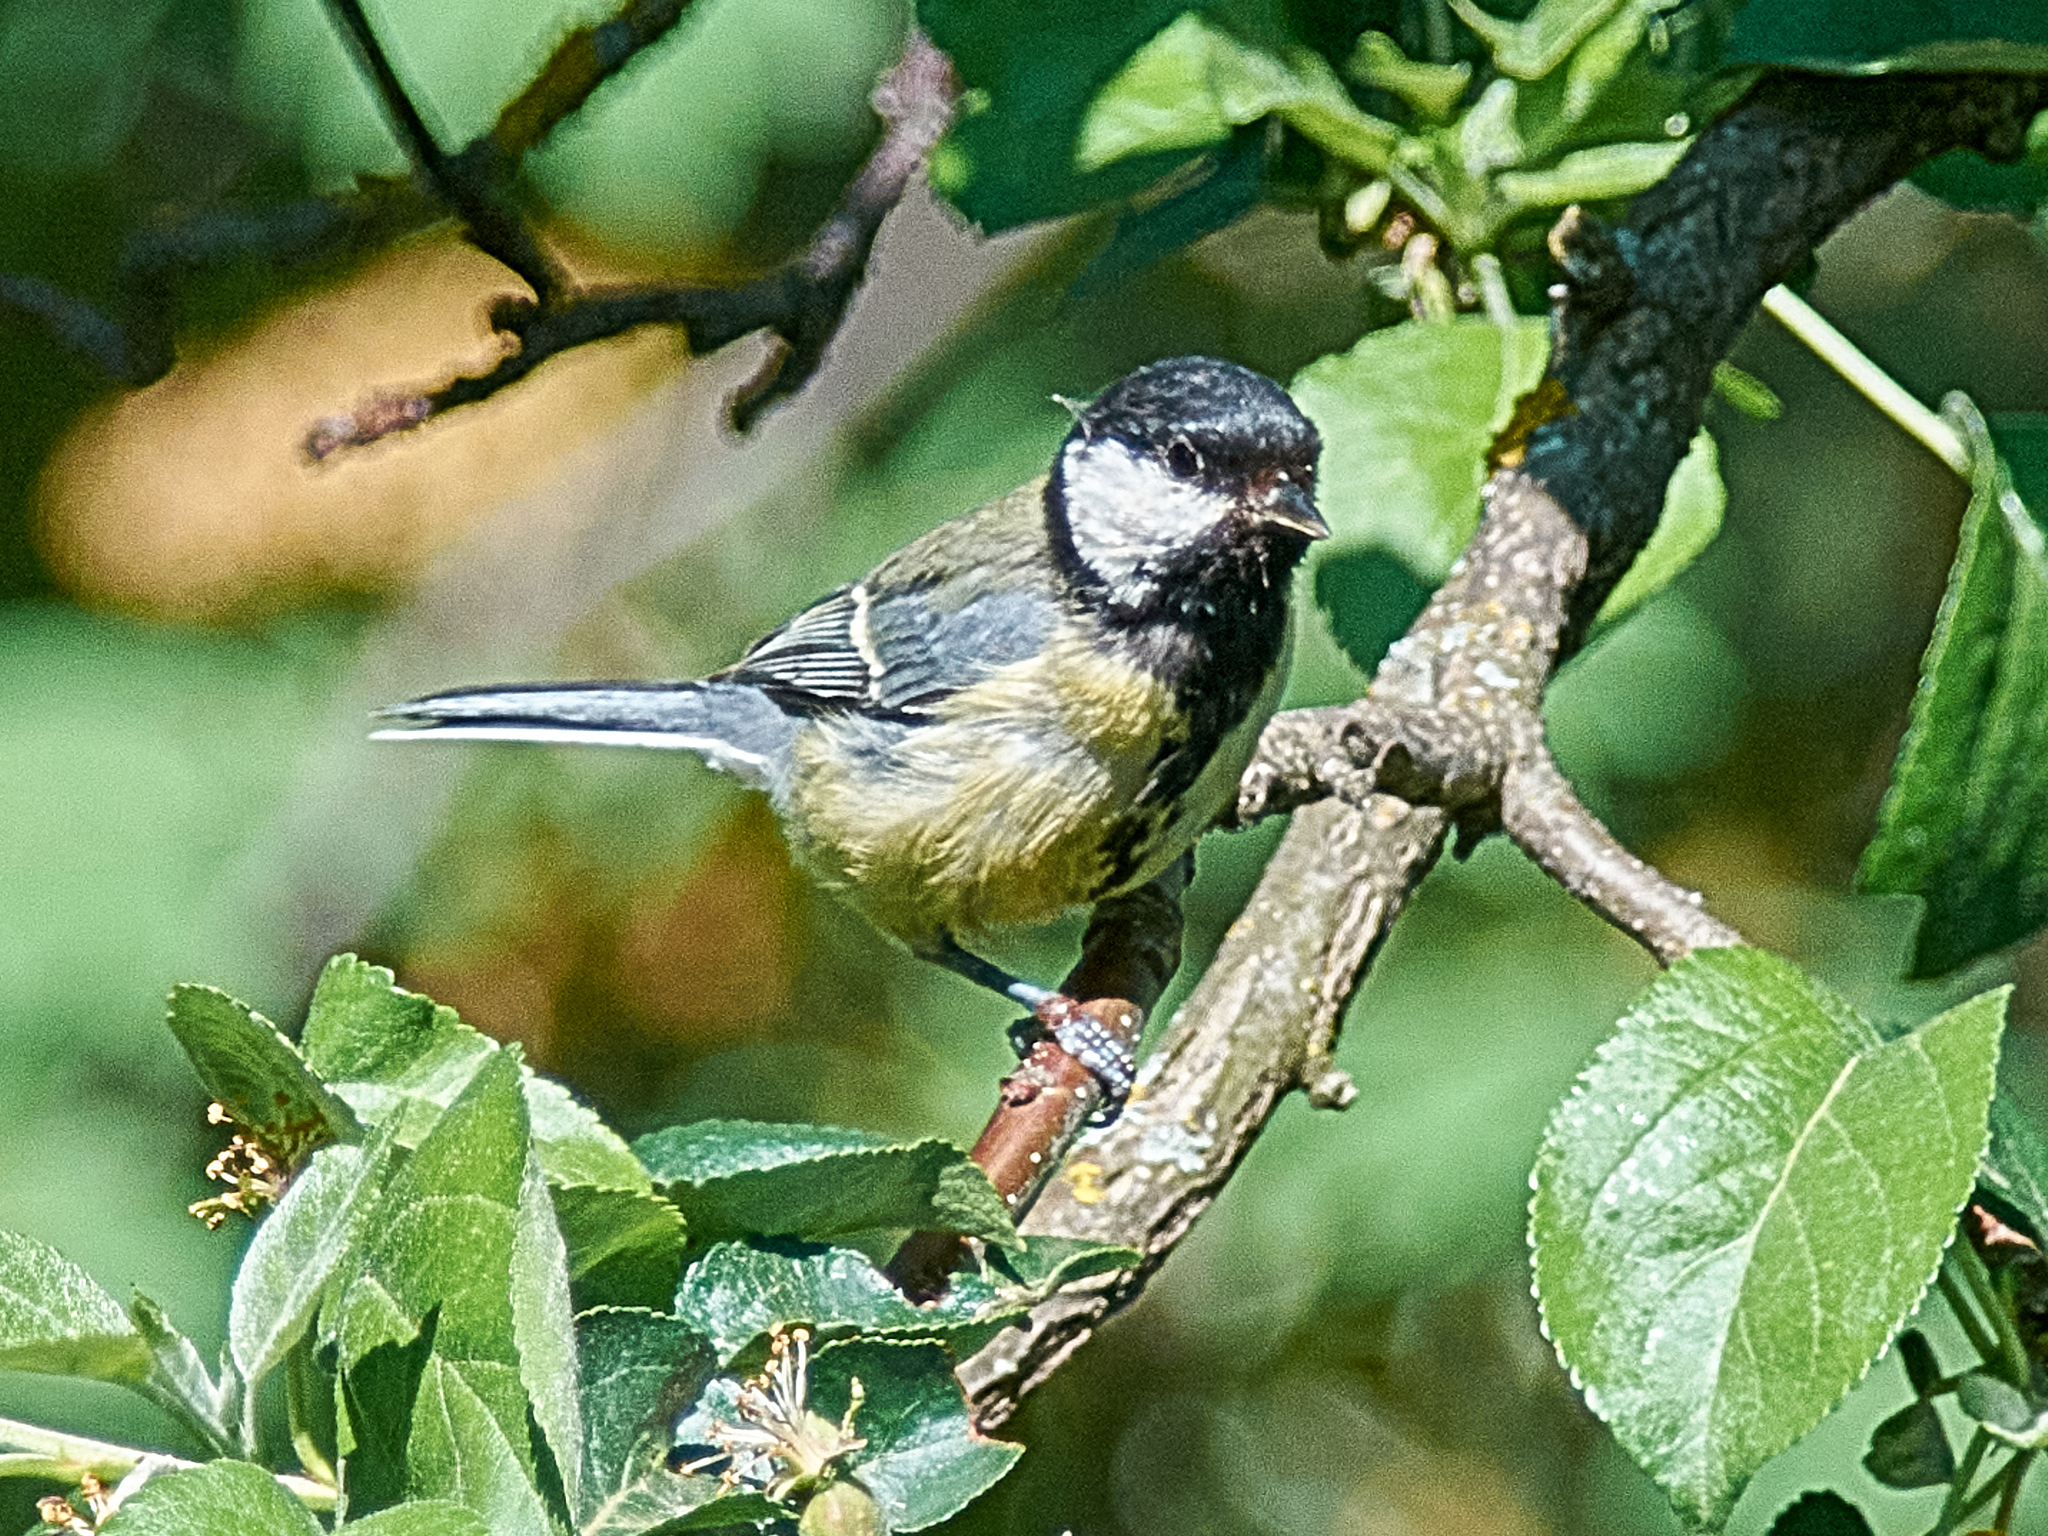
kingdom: Animalia
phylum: Chordata
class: Aves
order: Passeriformes
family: Paridae
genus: Parus
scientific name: Parus major
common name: Great tit
